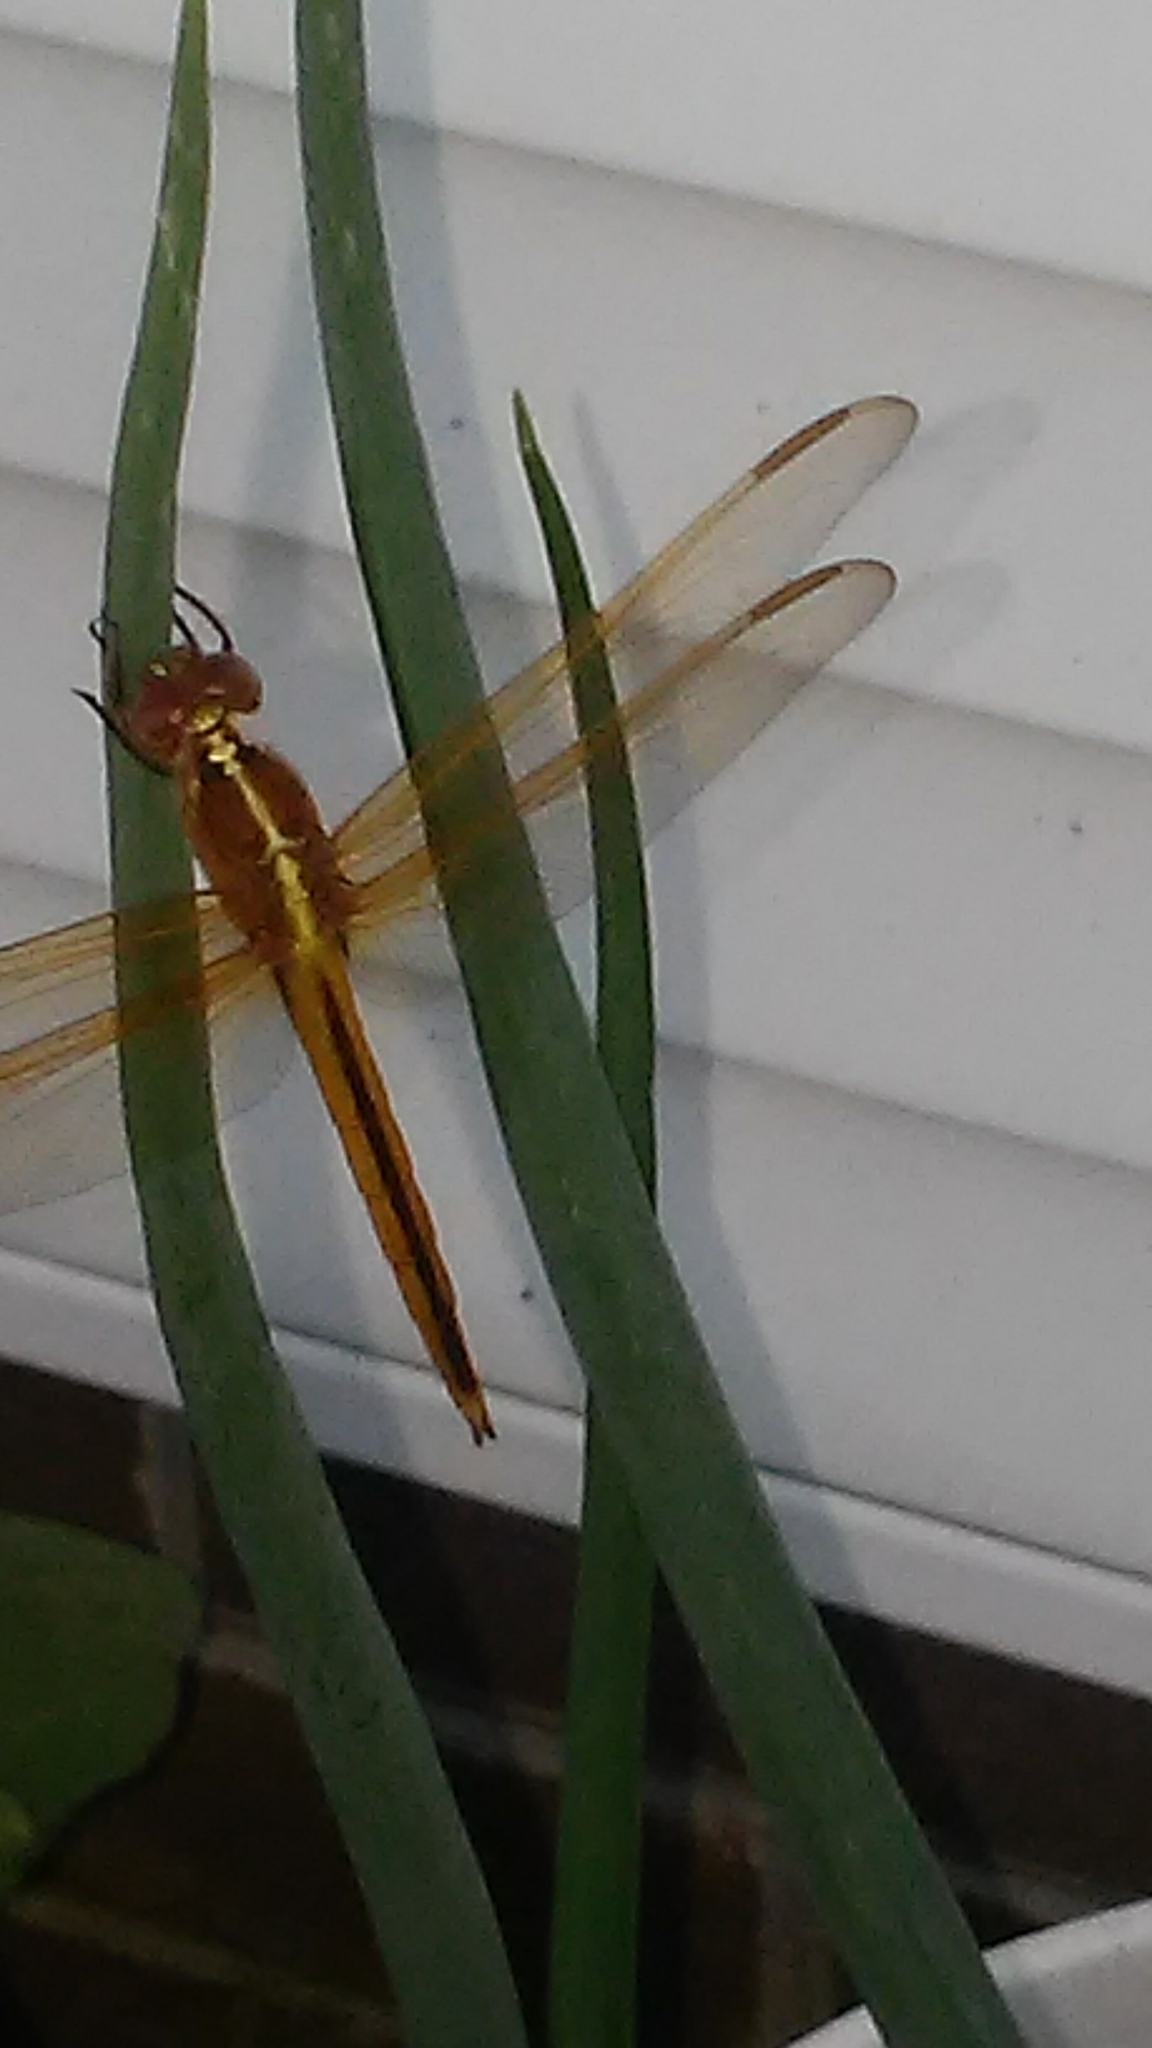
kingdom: Animalia
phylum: Arthropoda
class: Insecta
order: Odonata
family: Libellulidae
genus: Libellula
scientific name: Libellula needhami
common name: Needham's skimmer
